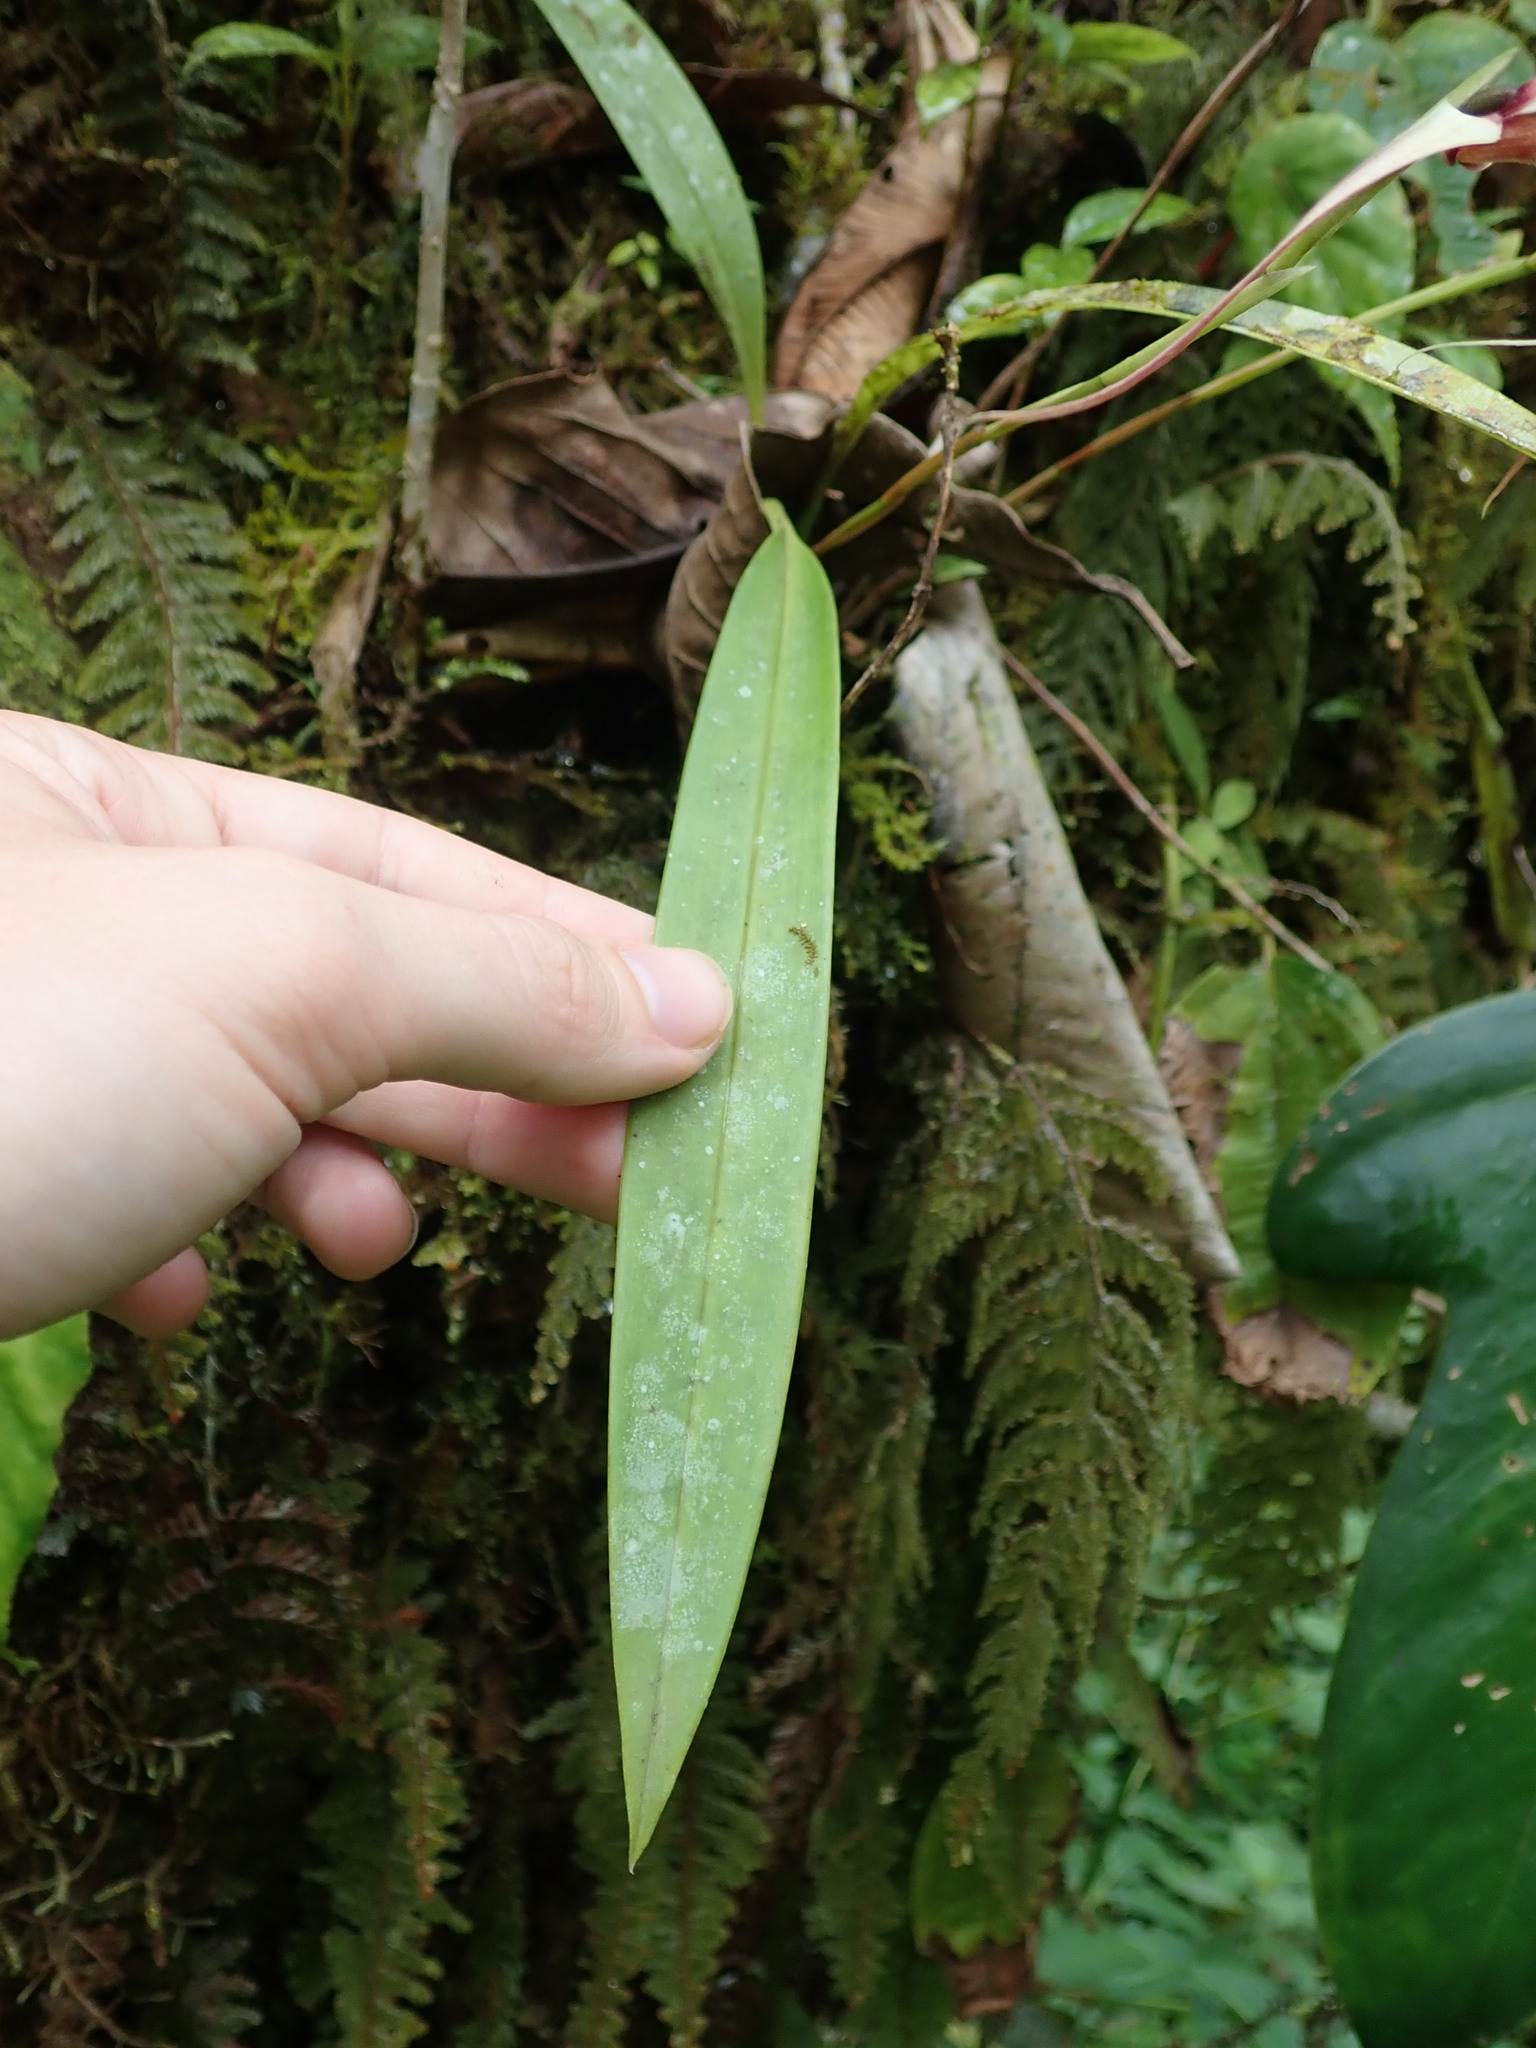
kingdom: Plantae
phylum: Tracheophyta
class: Liliopsida
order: Asparagales
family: Orchidaceae
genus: Maxillaria
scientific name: Maxillaria caucana
